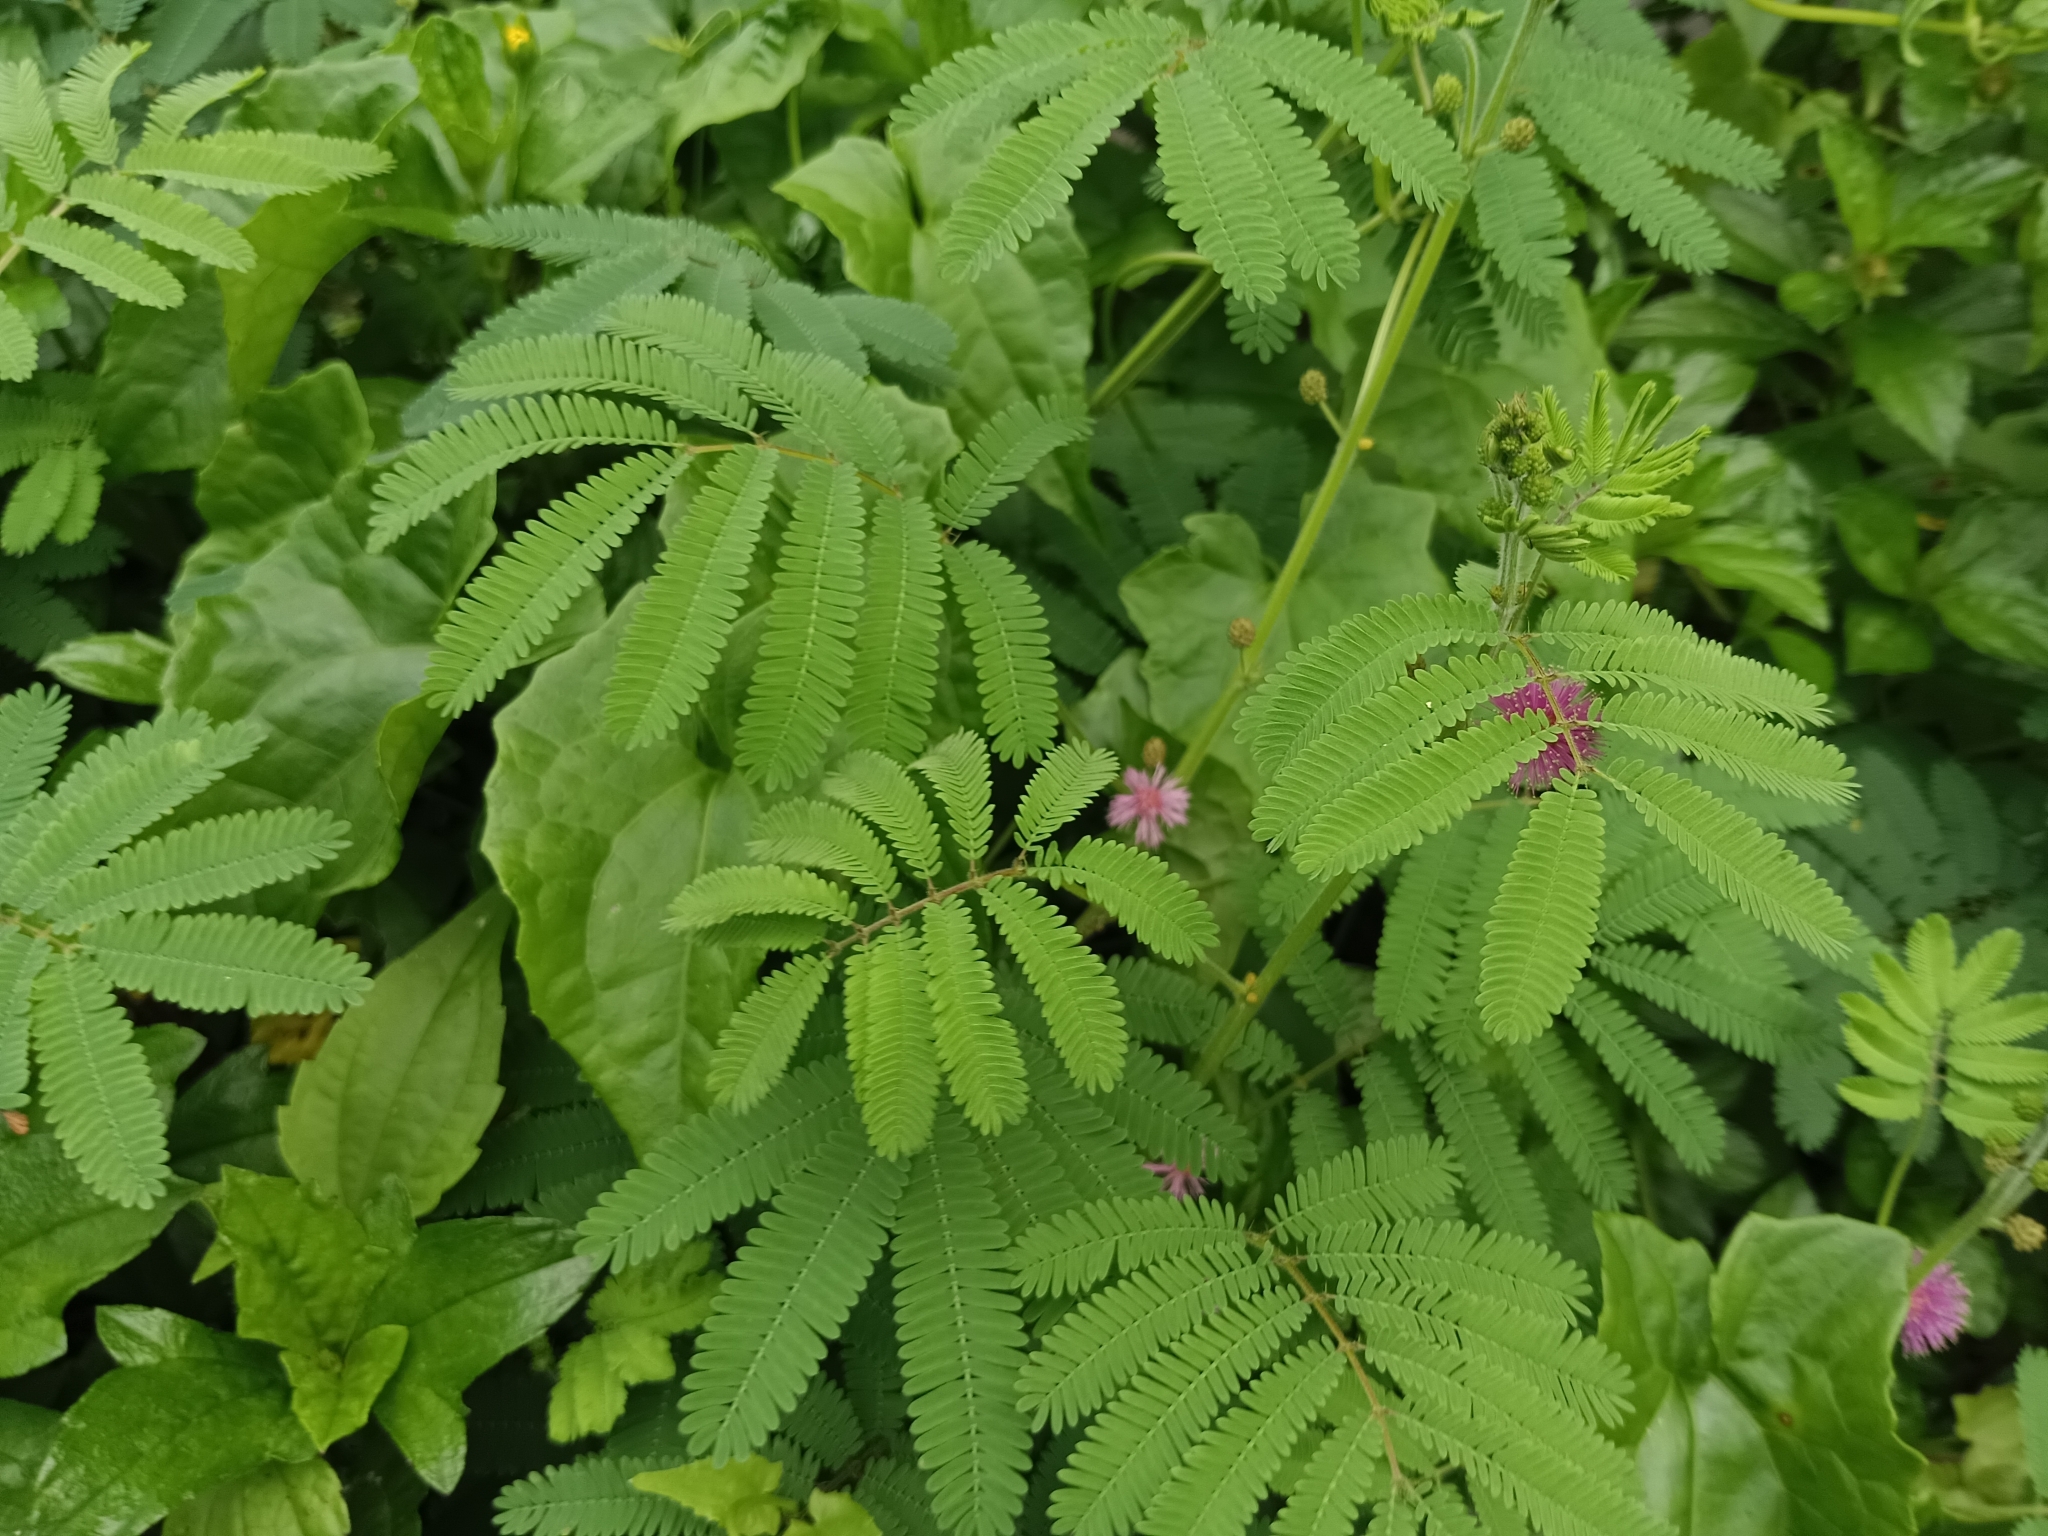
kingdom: Plantae
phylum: Tracheophyta
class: Magnoliopsida
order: Fabales
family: Fabaceae
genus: Mimosa
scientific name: Mimosa diplotricha
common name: Giant sensitive-plant
